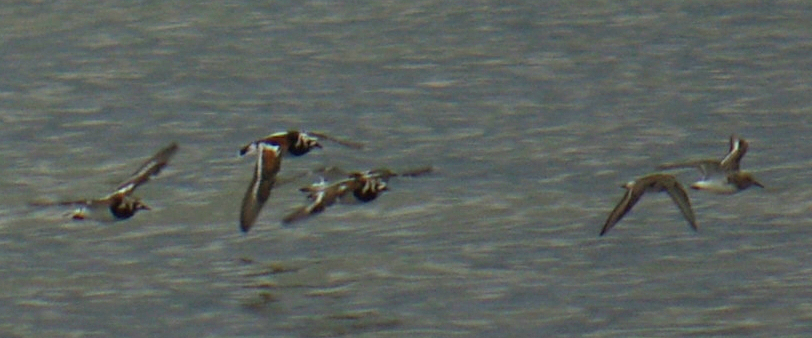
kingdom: Animalia
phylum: Chordata
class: Aves
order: Charadriiformes
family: Scolopacidae
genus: Arenaria
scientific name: Arenaria interpres
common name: Ruddy turnstone
